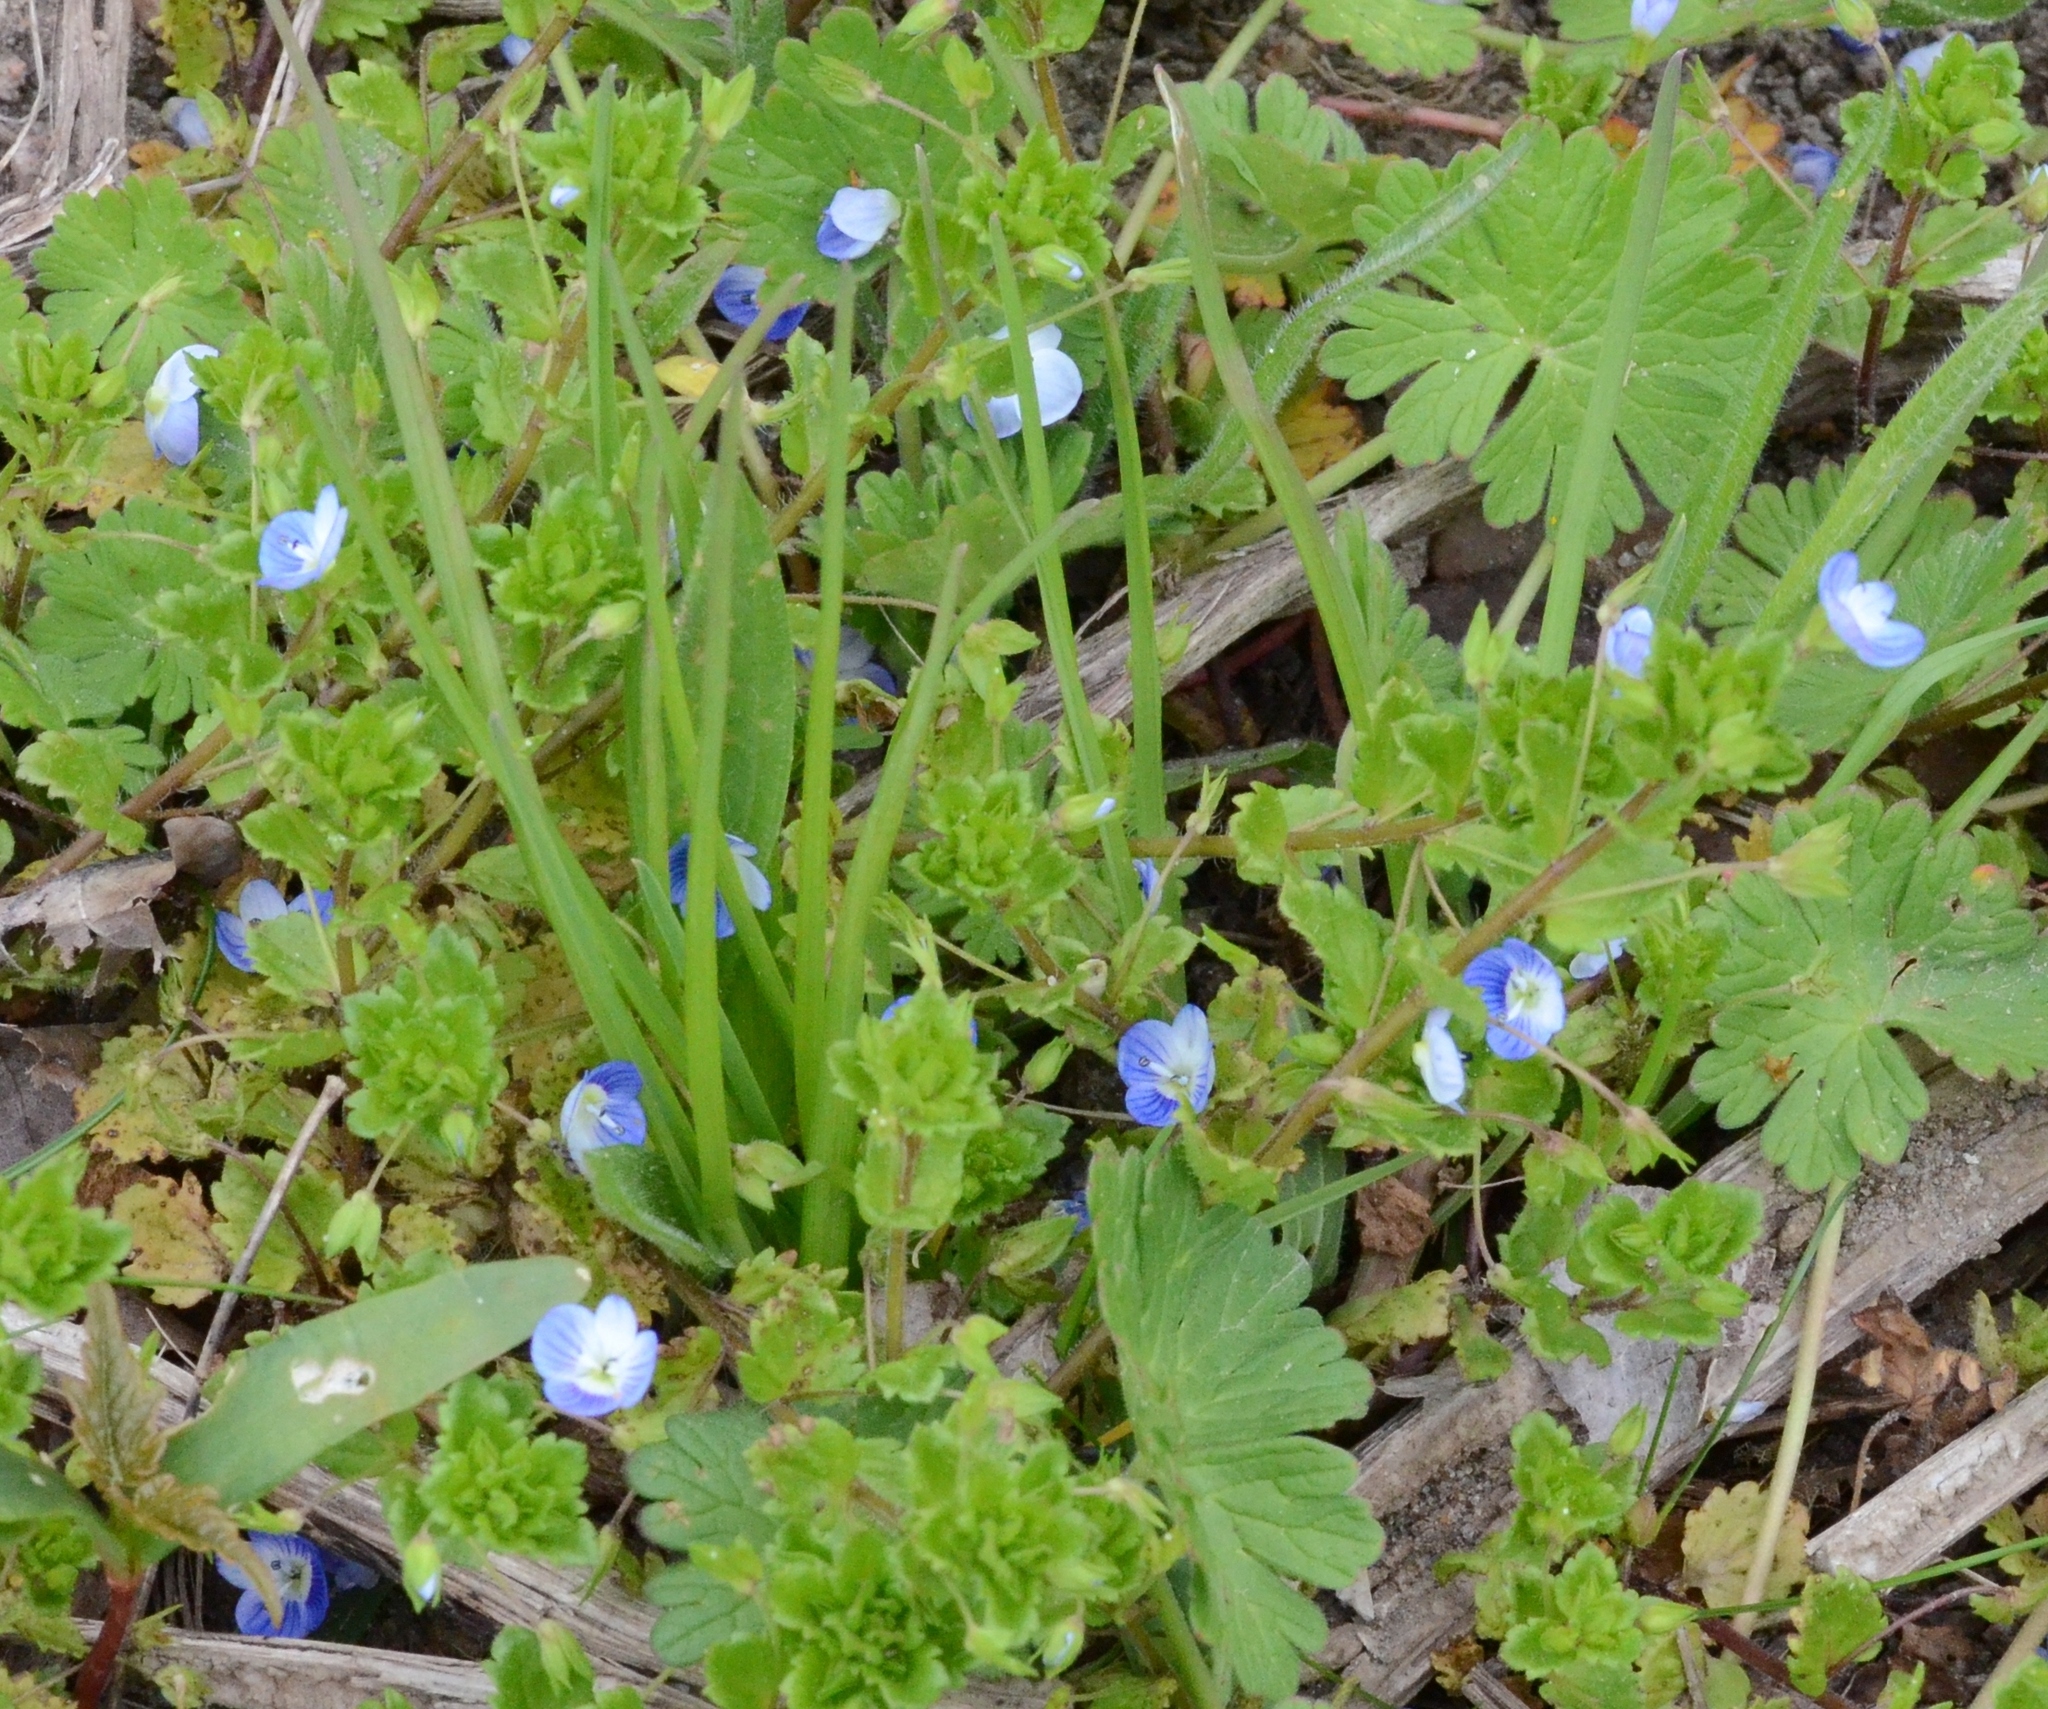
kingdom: Plantae
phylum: Tracheophyta
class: Magnoliopsida
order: Lamiales
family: Plantaginaceae
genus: Veronica
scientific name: Veronica persica
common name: Common field-speedwell
